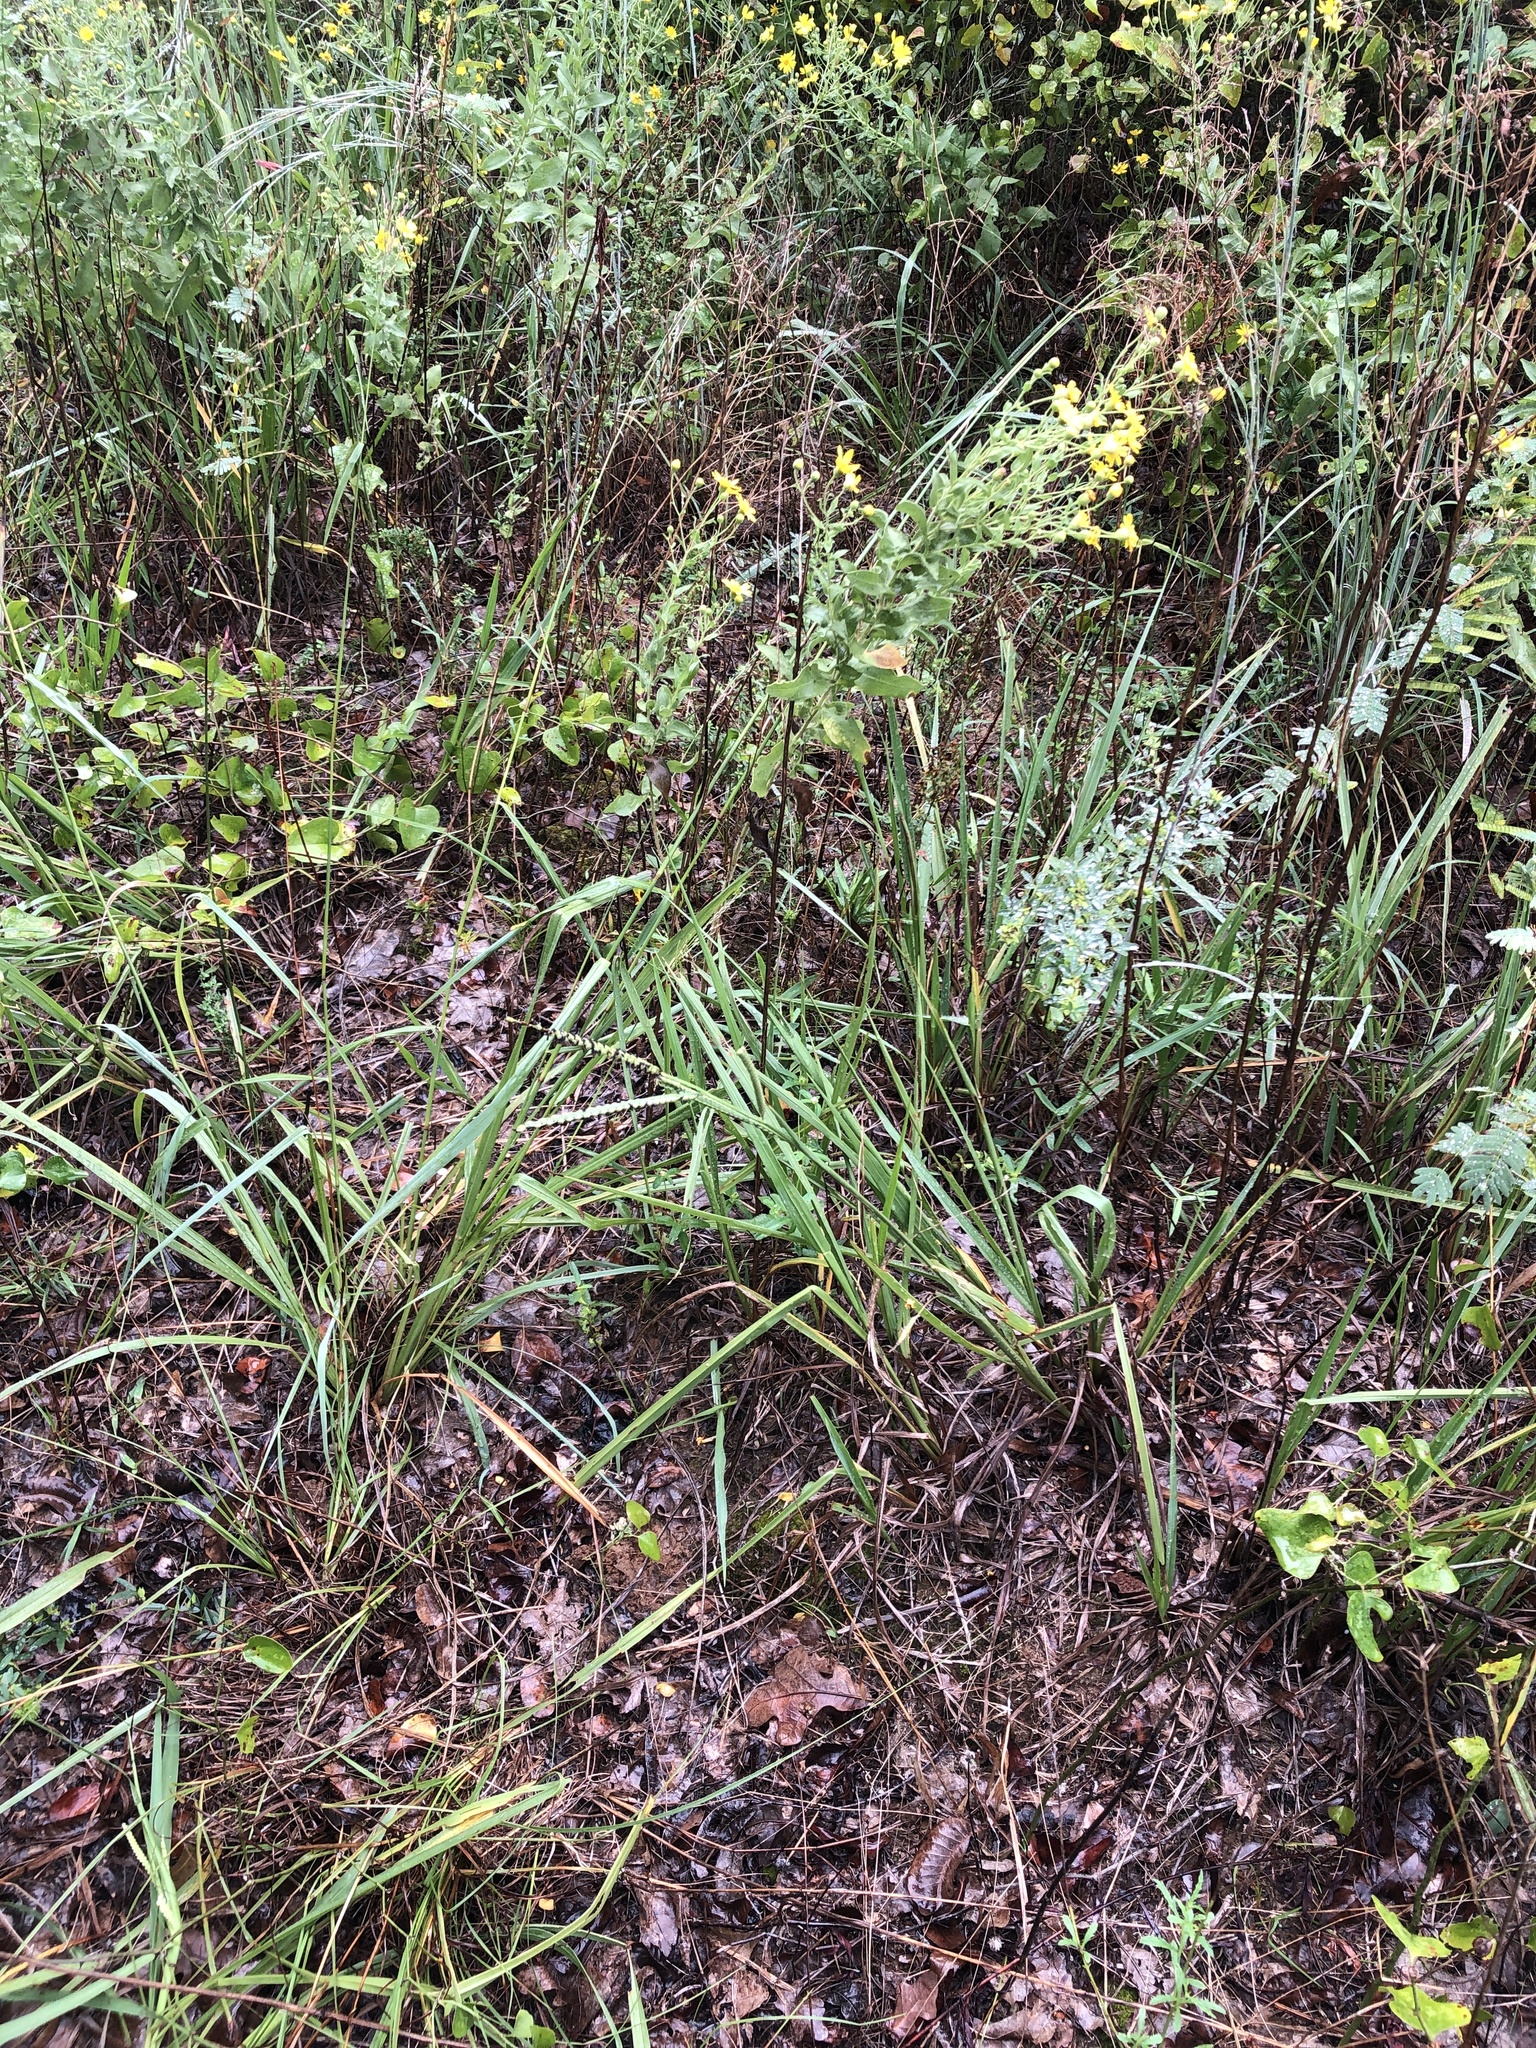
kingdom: Plantae
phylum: Tracheophyta
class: Liliopsida
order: Poales
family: Poaceae
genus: Paspalum
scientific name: Paspalum floridanum
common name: Florida paspalum
